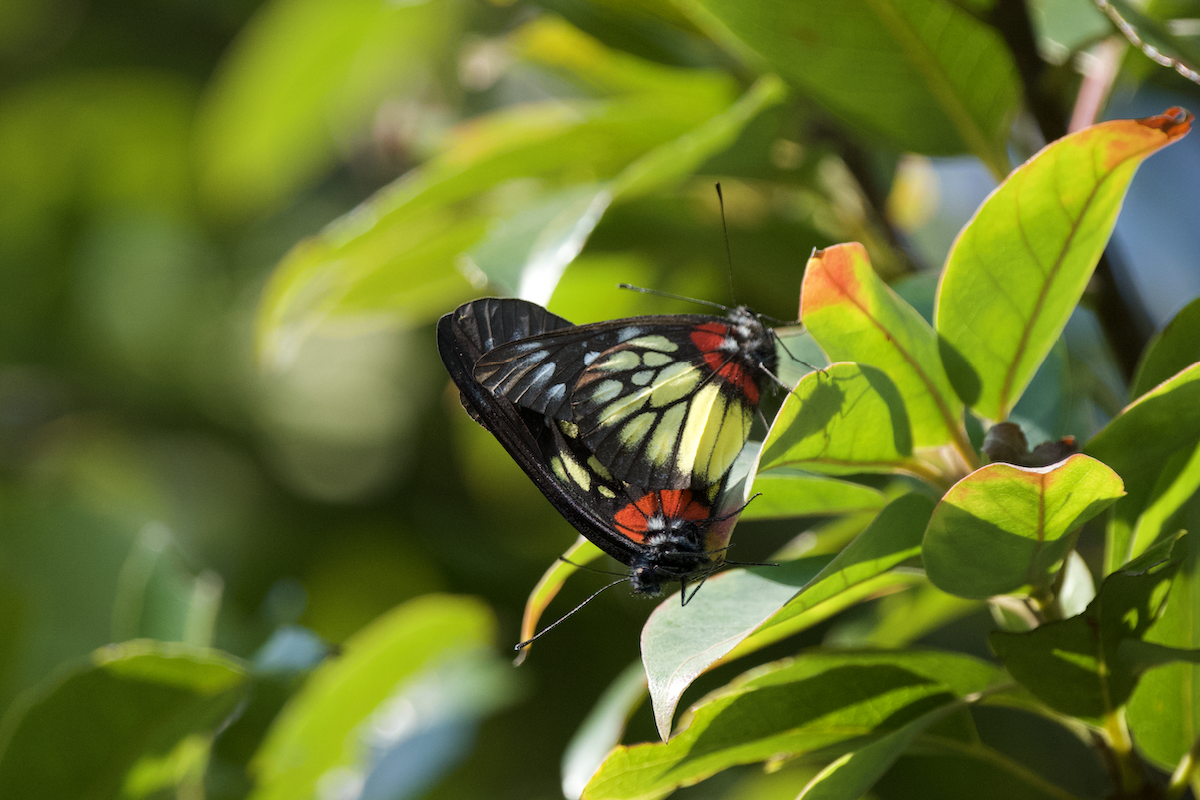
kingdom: Animalia
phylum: Arthropoda
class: Insecta
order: Lepidoptera
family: Pieridae
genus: Delias
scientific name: Delias pasithoe
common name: Red-base jezebel
